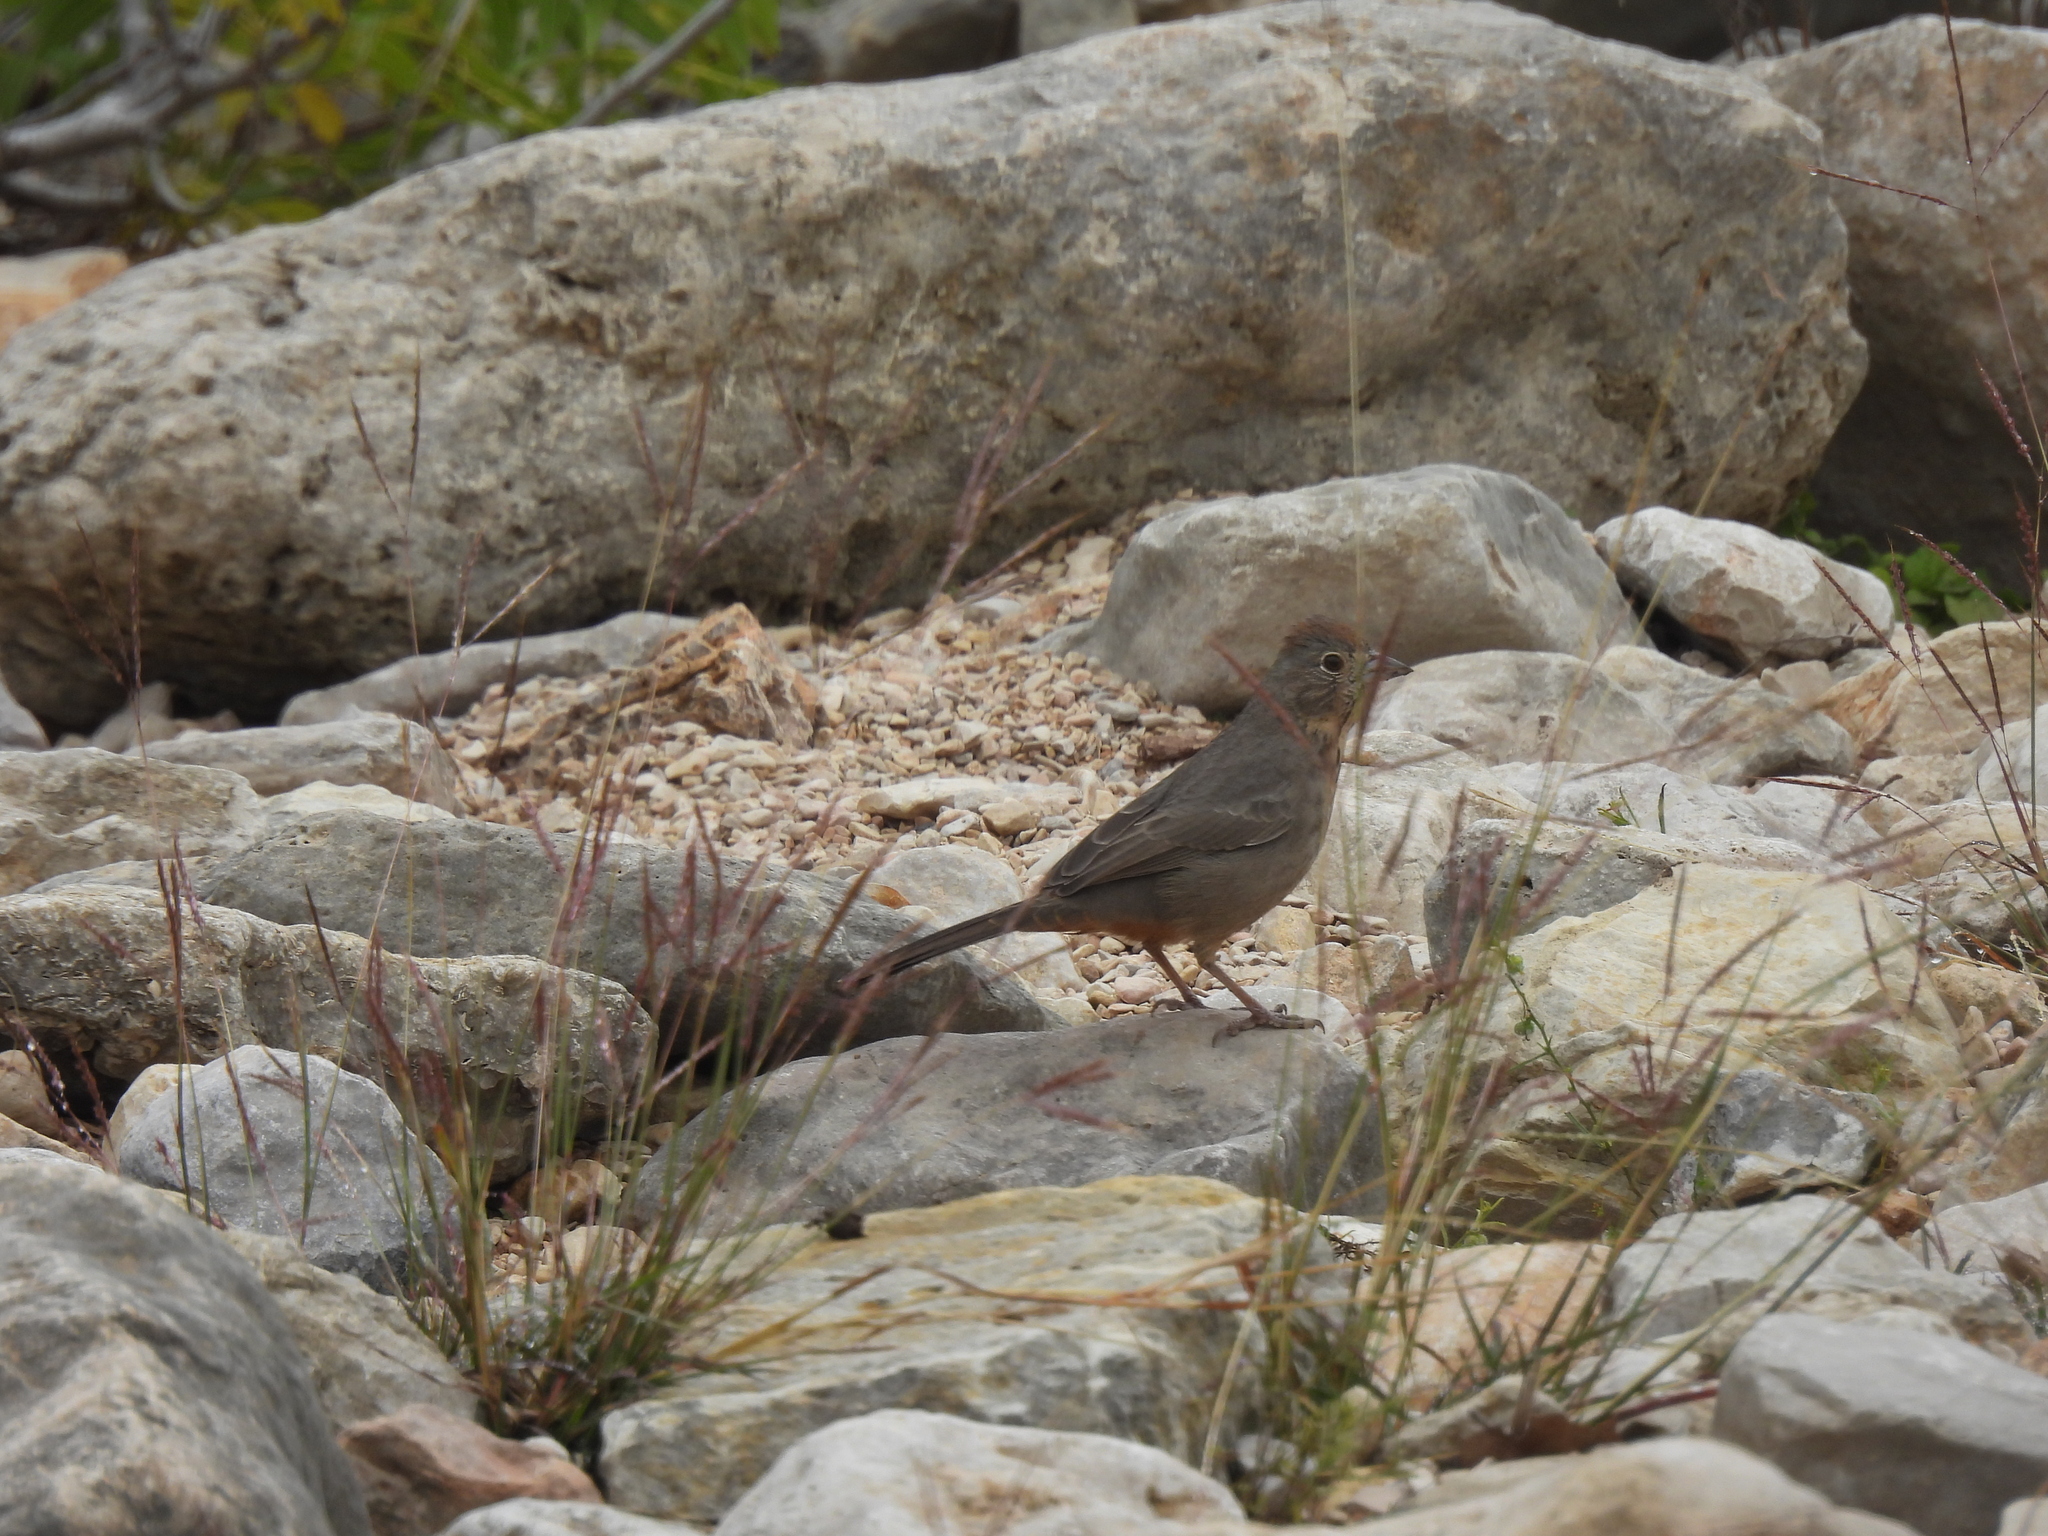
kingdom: Animalia
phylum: Chordata
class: Aves
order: Passeriformes
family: Passerellidae
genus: Melozone
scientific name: Melozone fusca
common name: Canyon towhee
